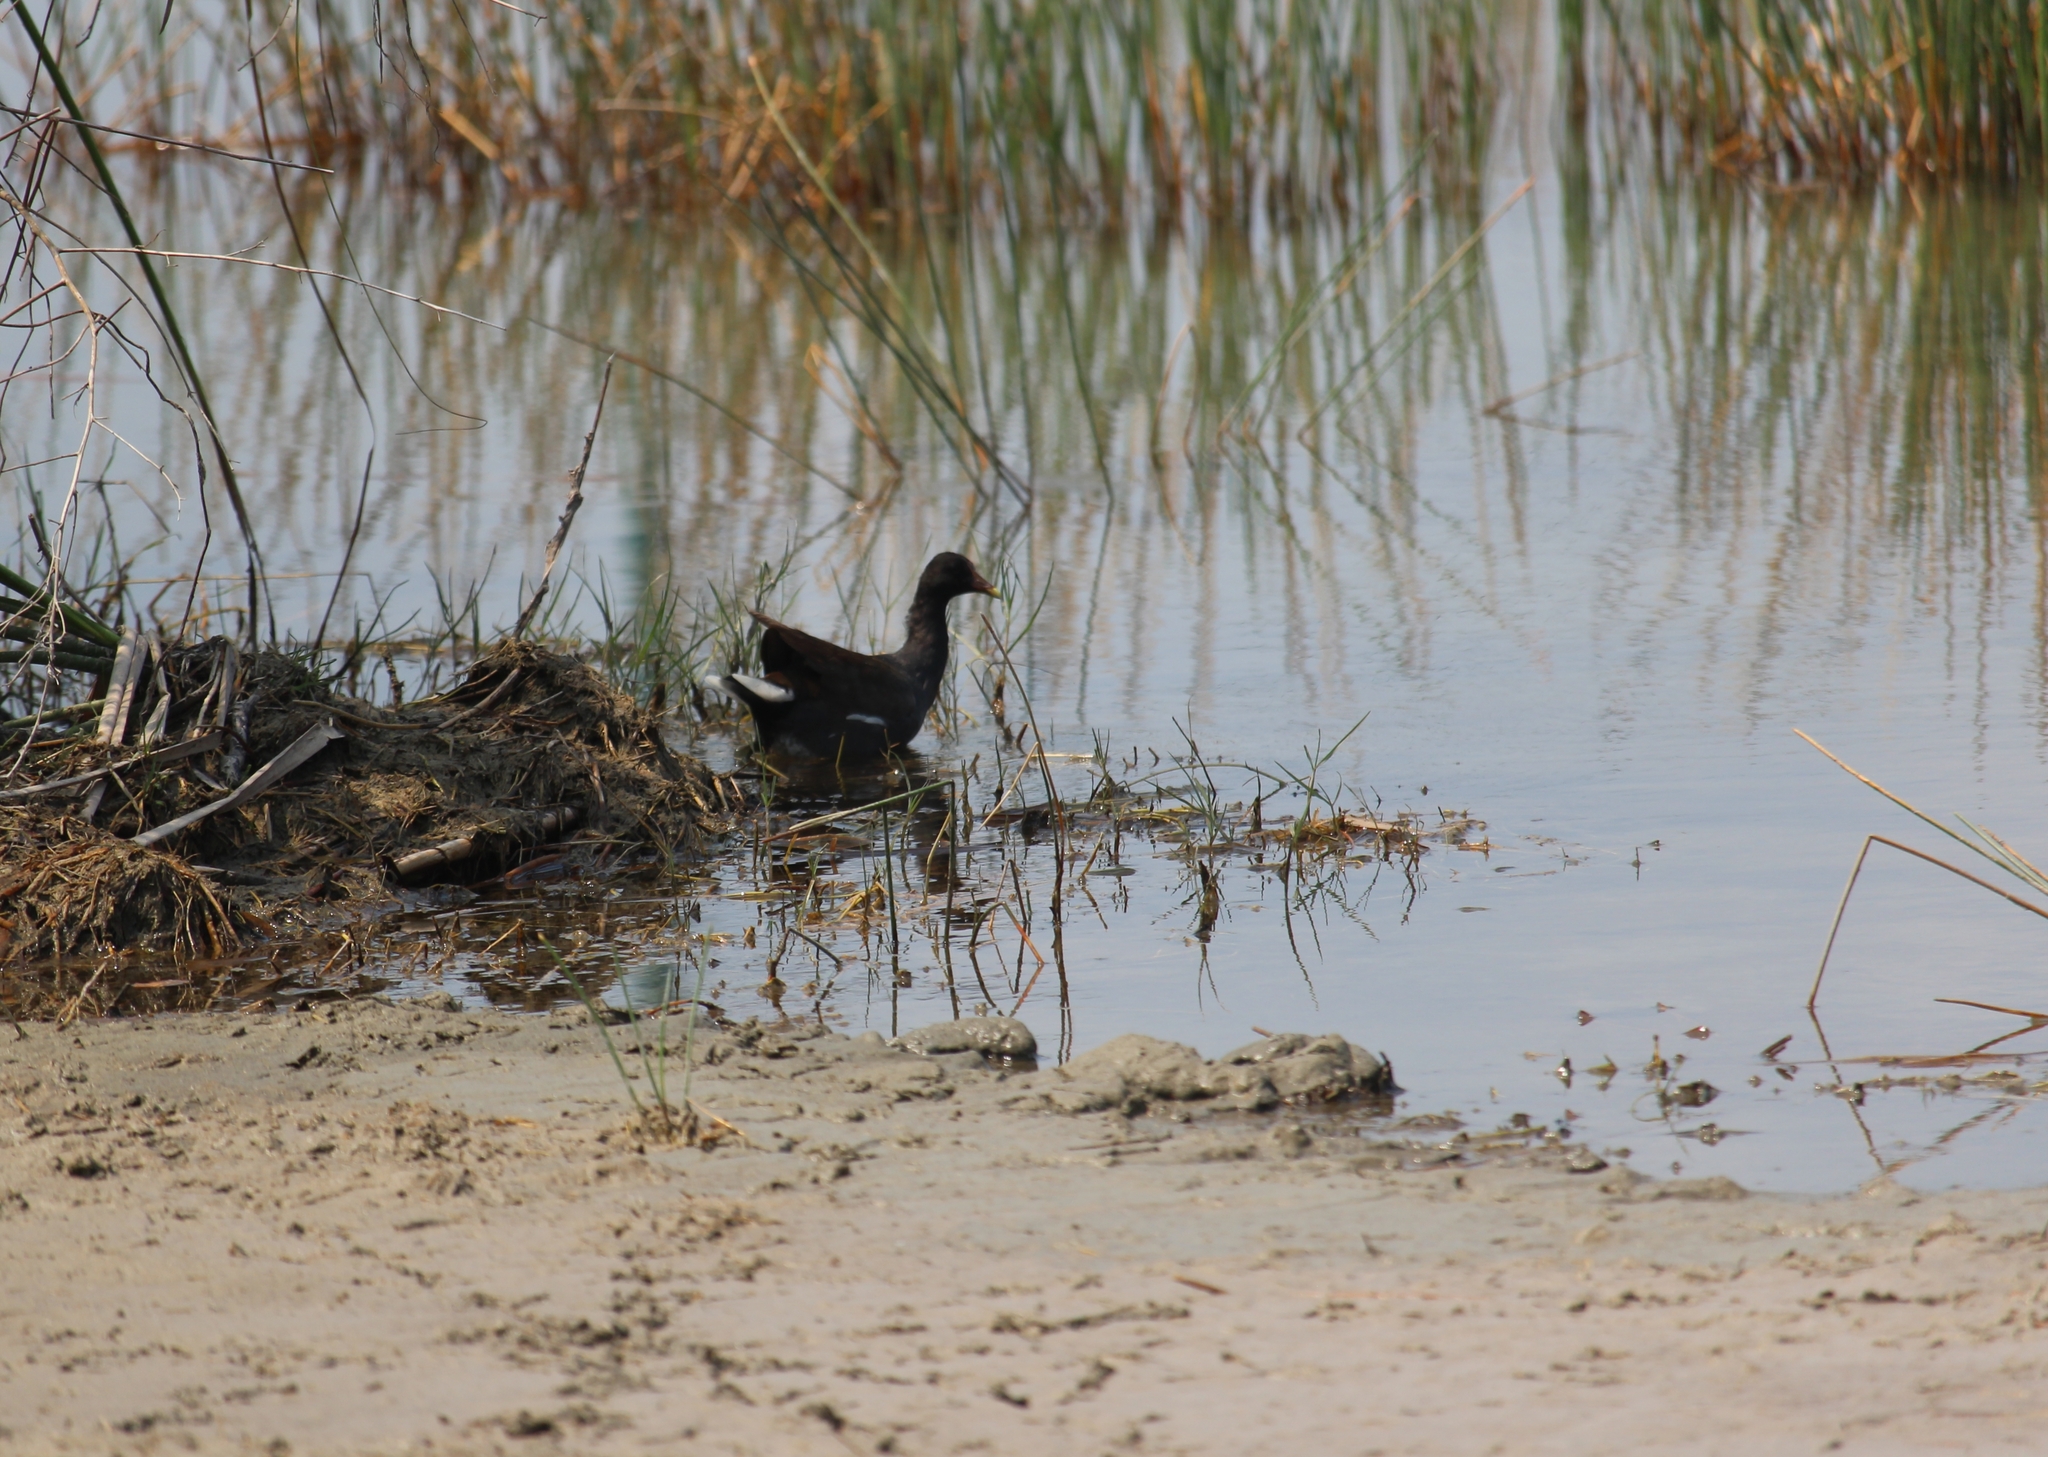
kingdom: Animalia
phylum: Chordata
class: Aves
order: Gruiformes
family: Rallidae
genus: Gallinula
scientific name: Gallinula chloropus
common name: Common moorhen
